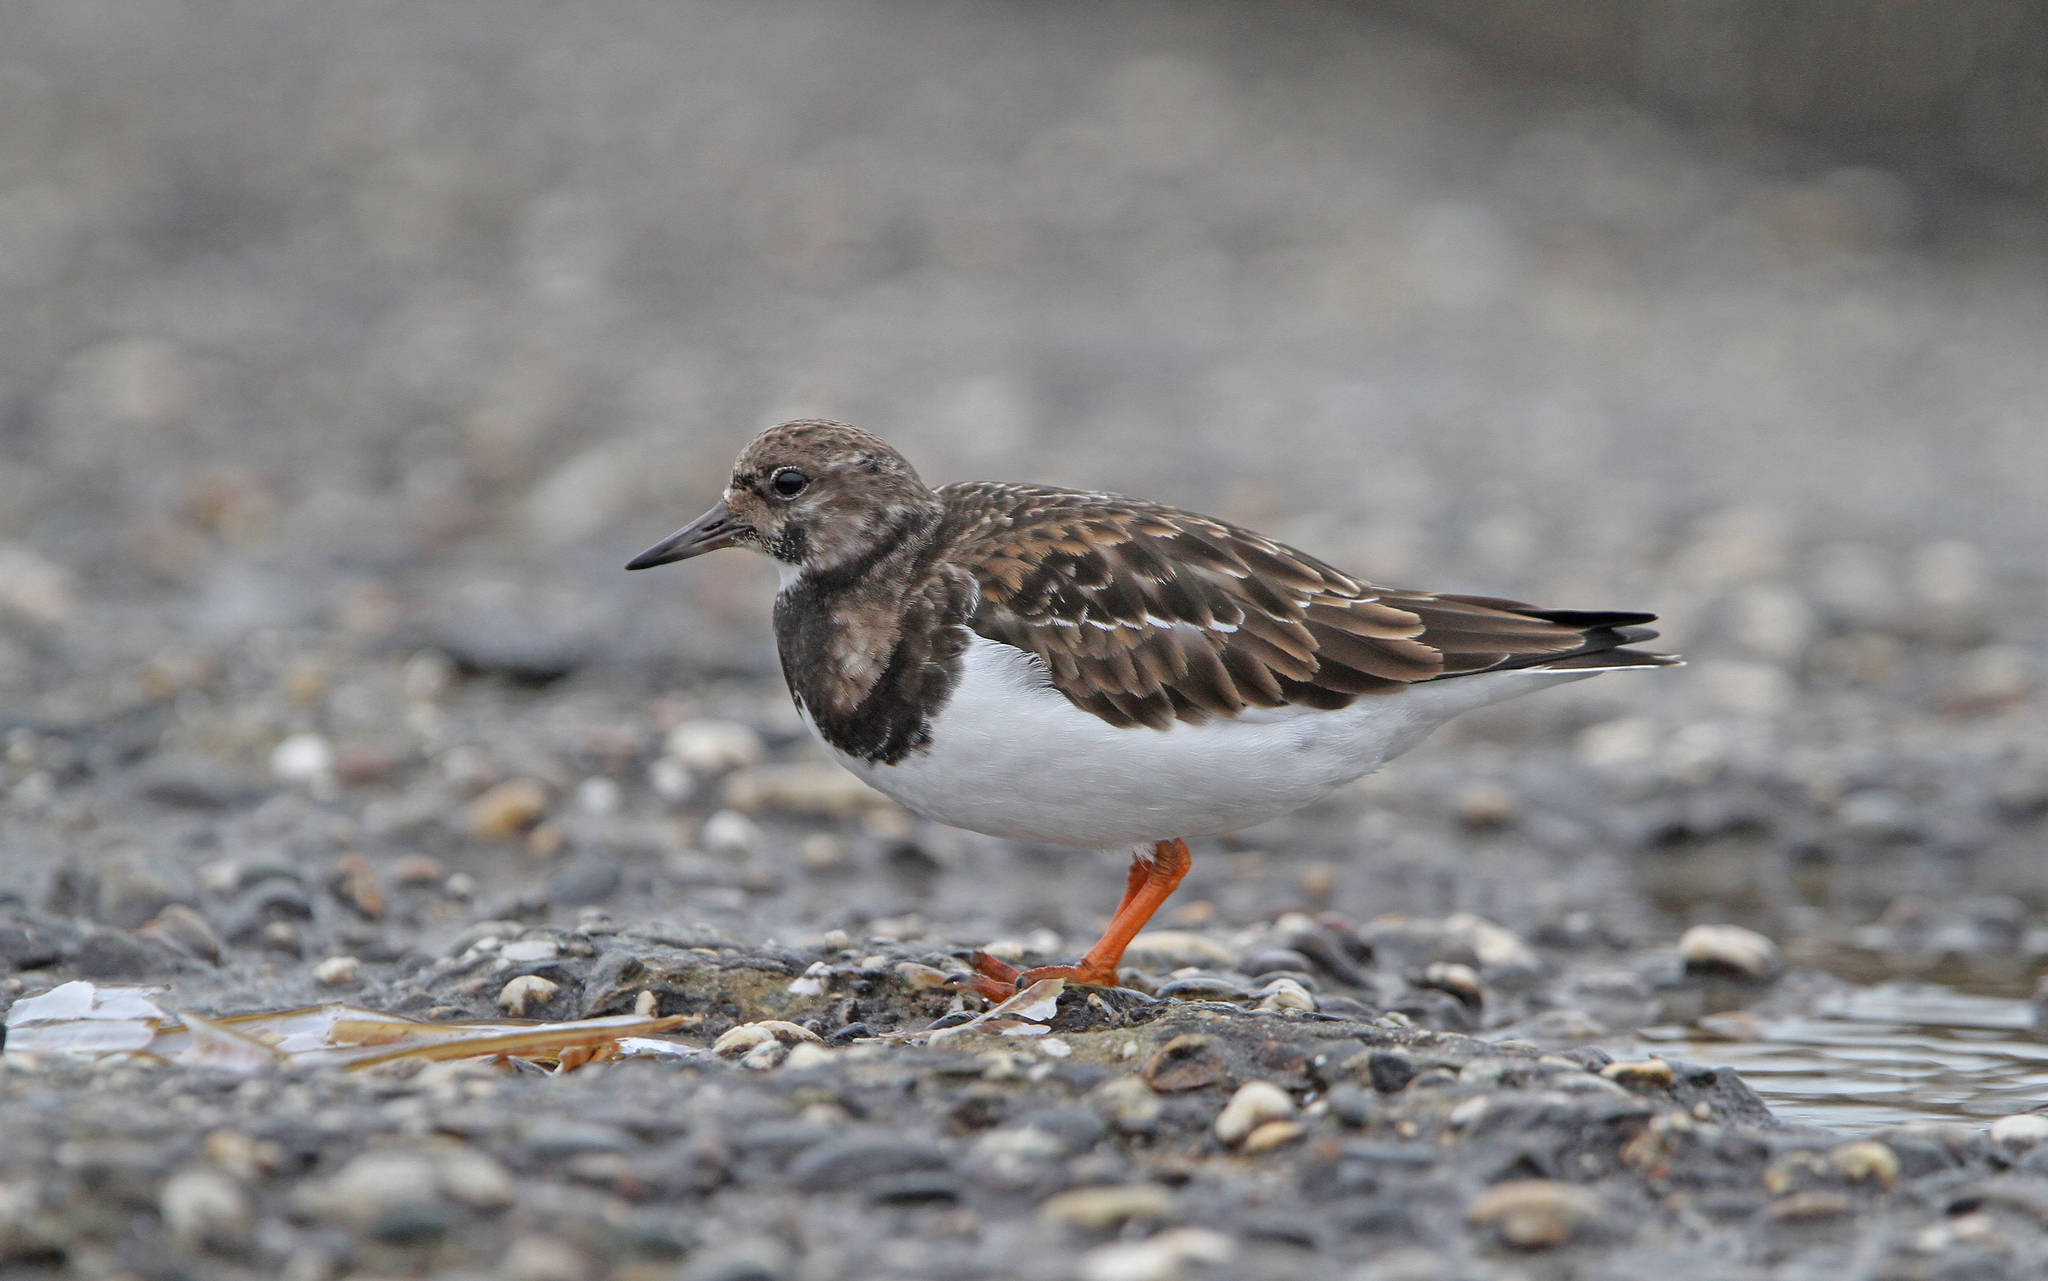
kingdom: Animalia
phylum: Chordata
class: Aves
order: Charadriiformes
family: Scolopacidae
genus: Arenaria
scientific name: Arenaria interpres
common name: Ruddy turnstone
